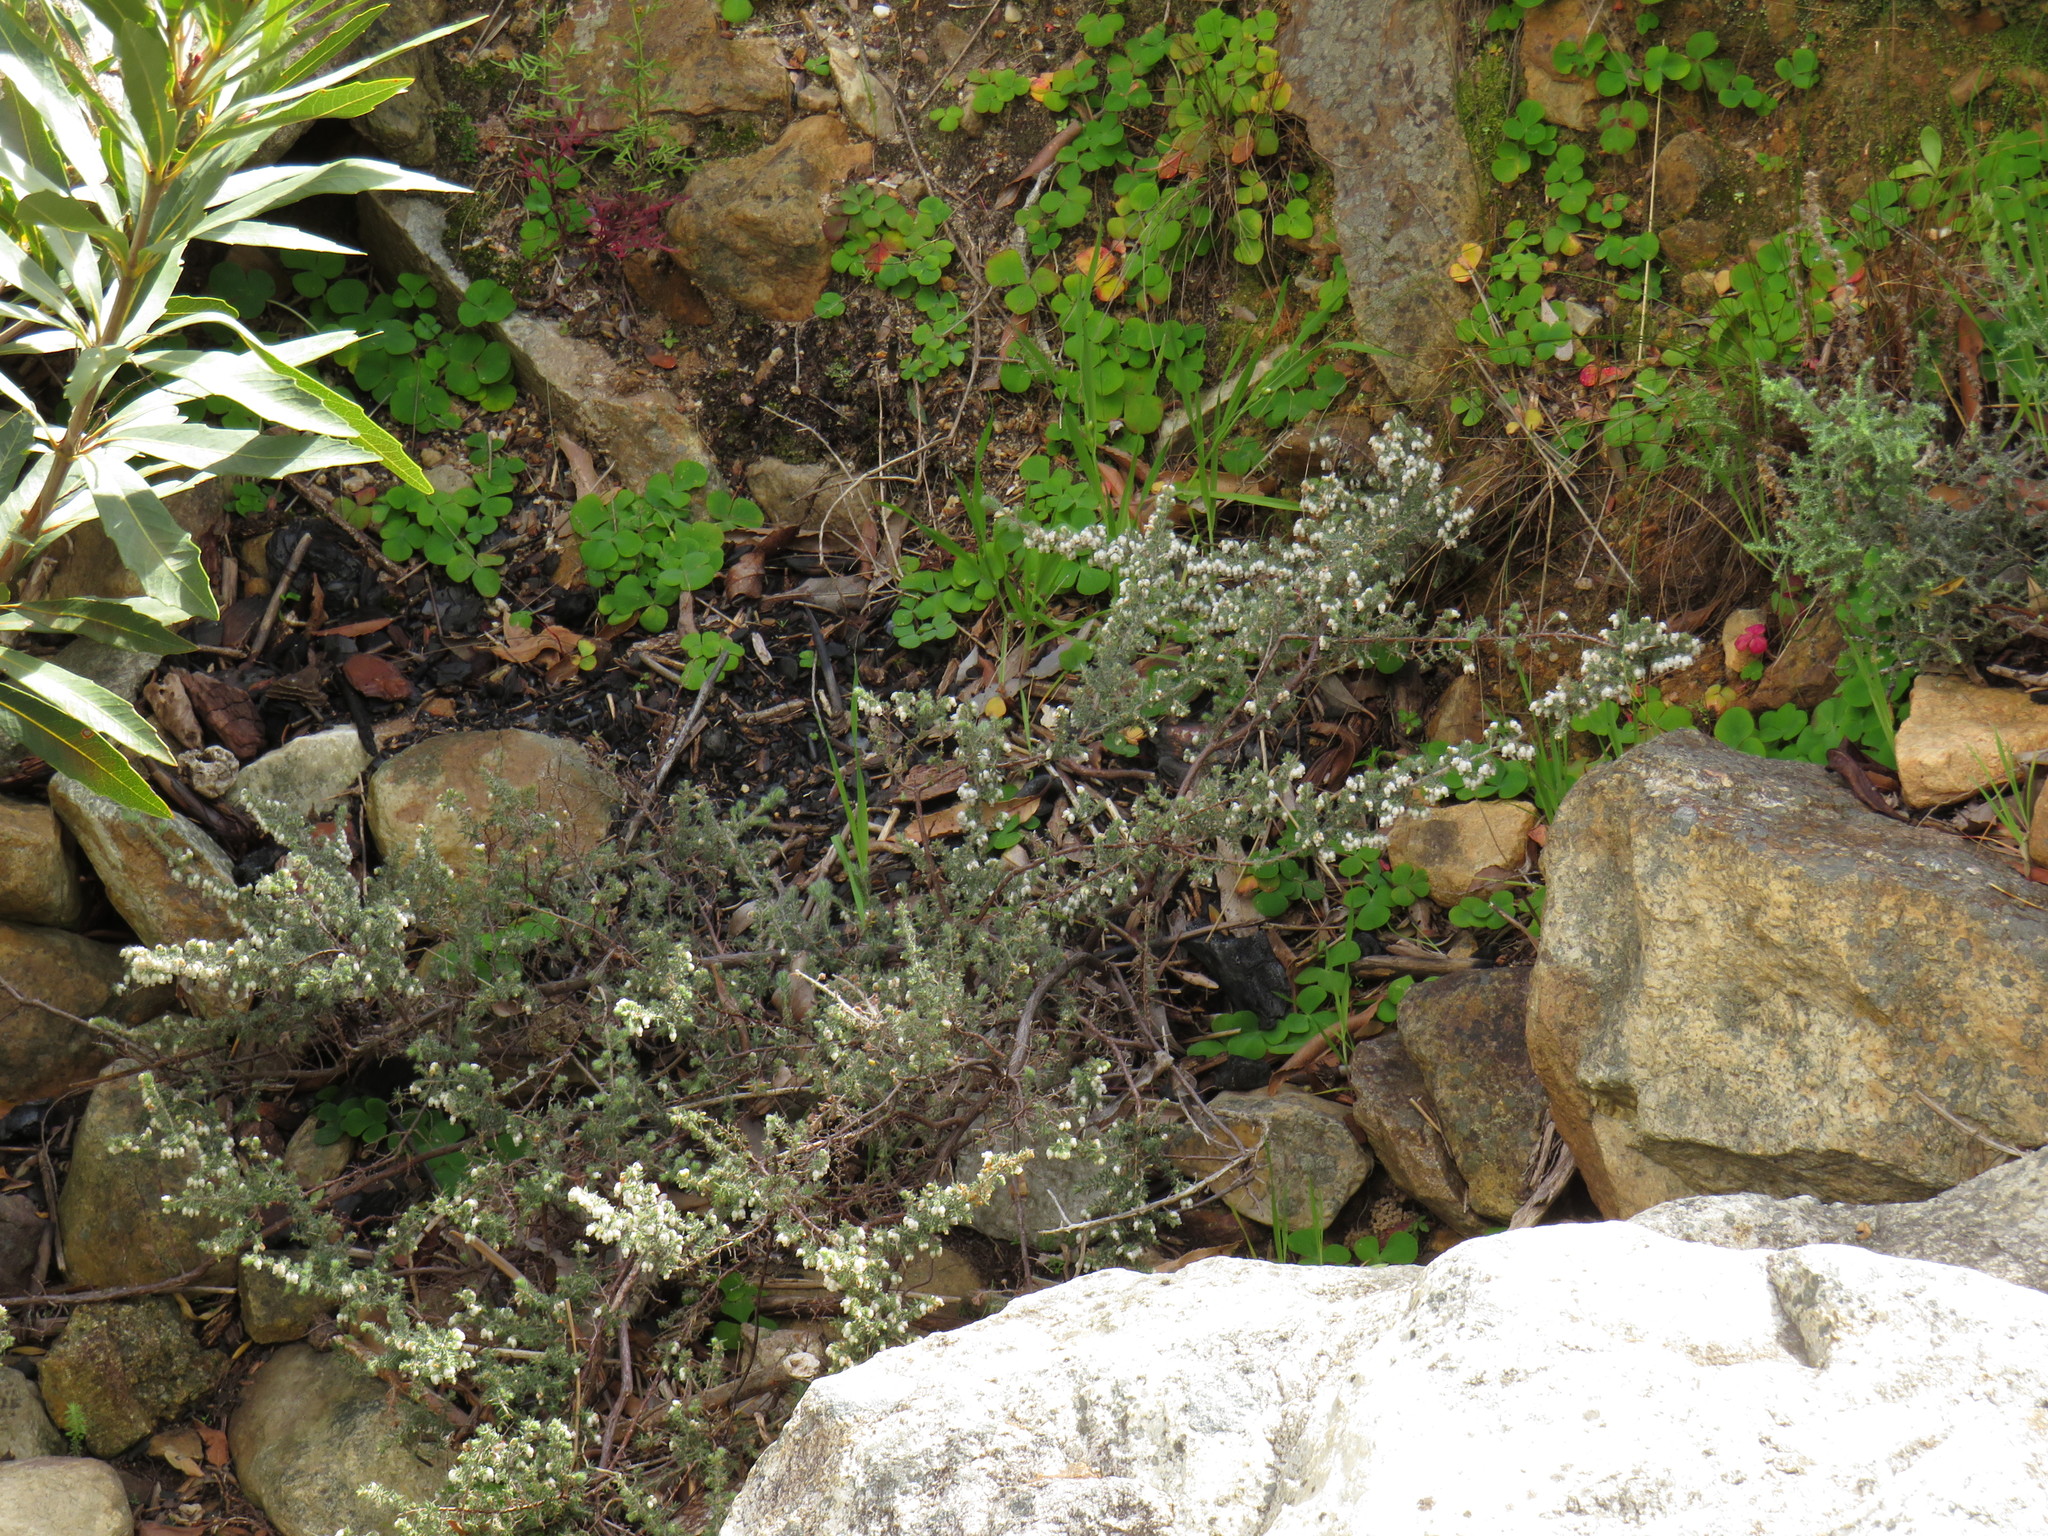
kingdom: Plantae
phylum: Tracheophyta
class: Magnoliopsida
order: Ericales
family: Ericaceae
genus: Erica
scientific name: Erica totta
